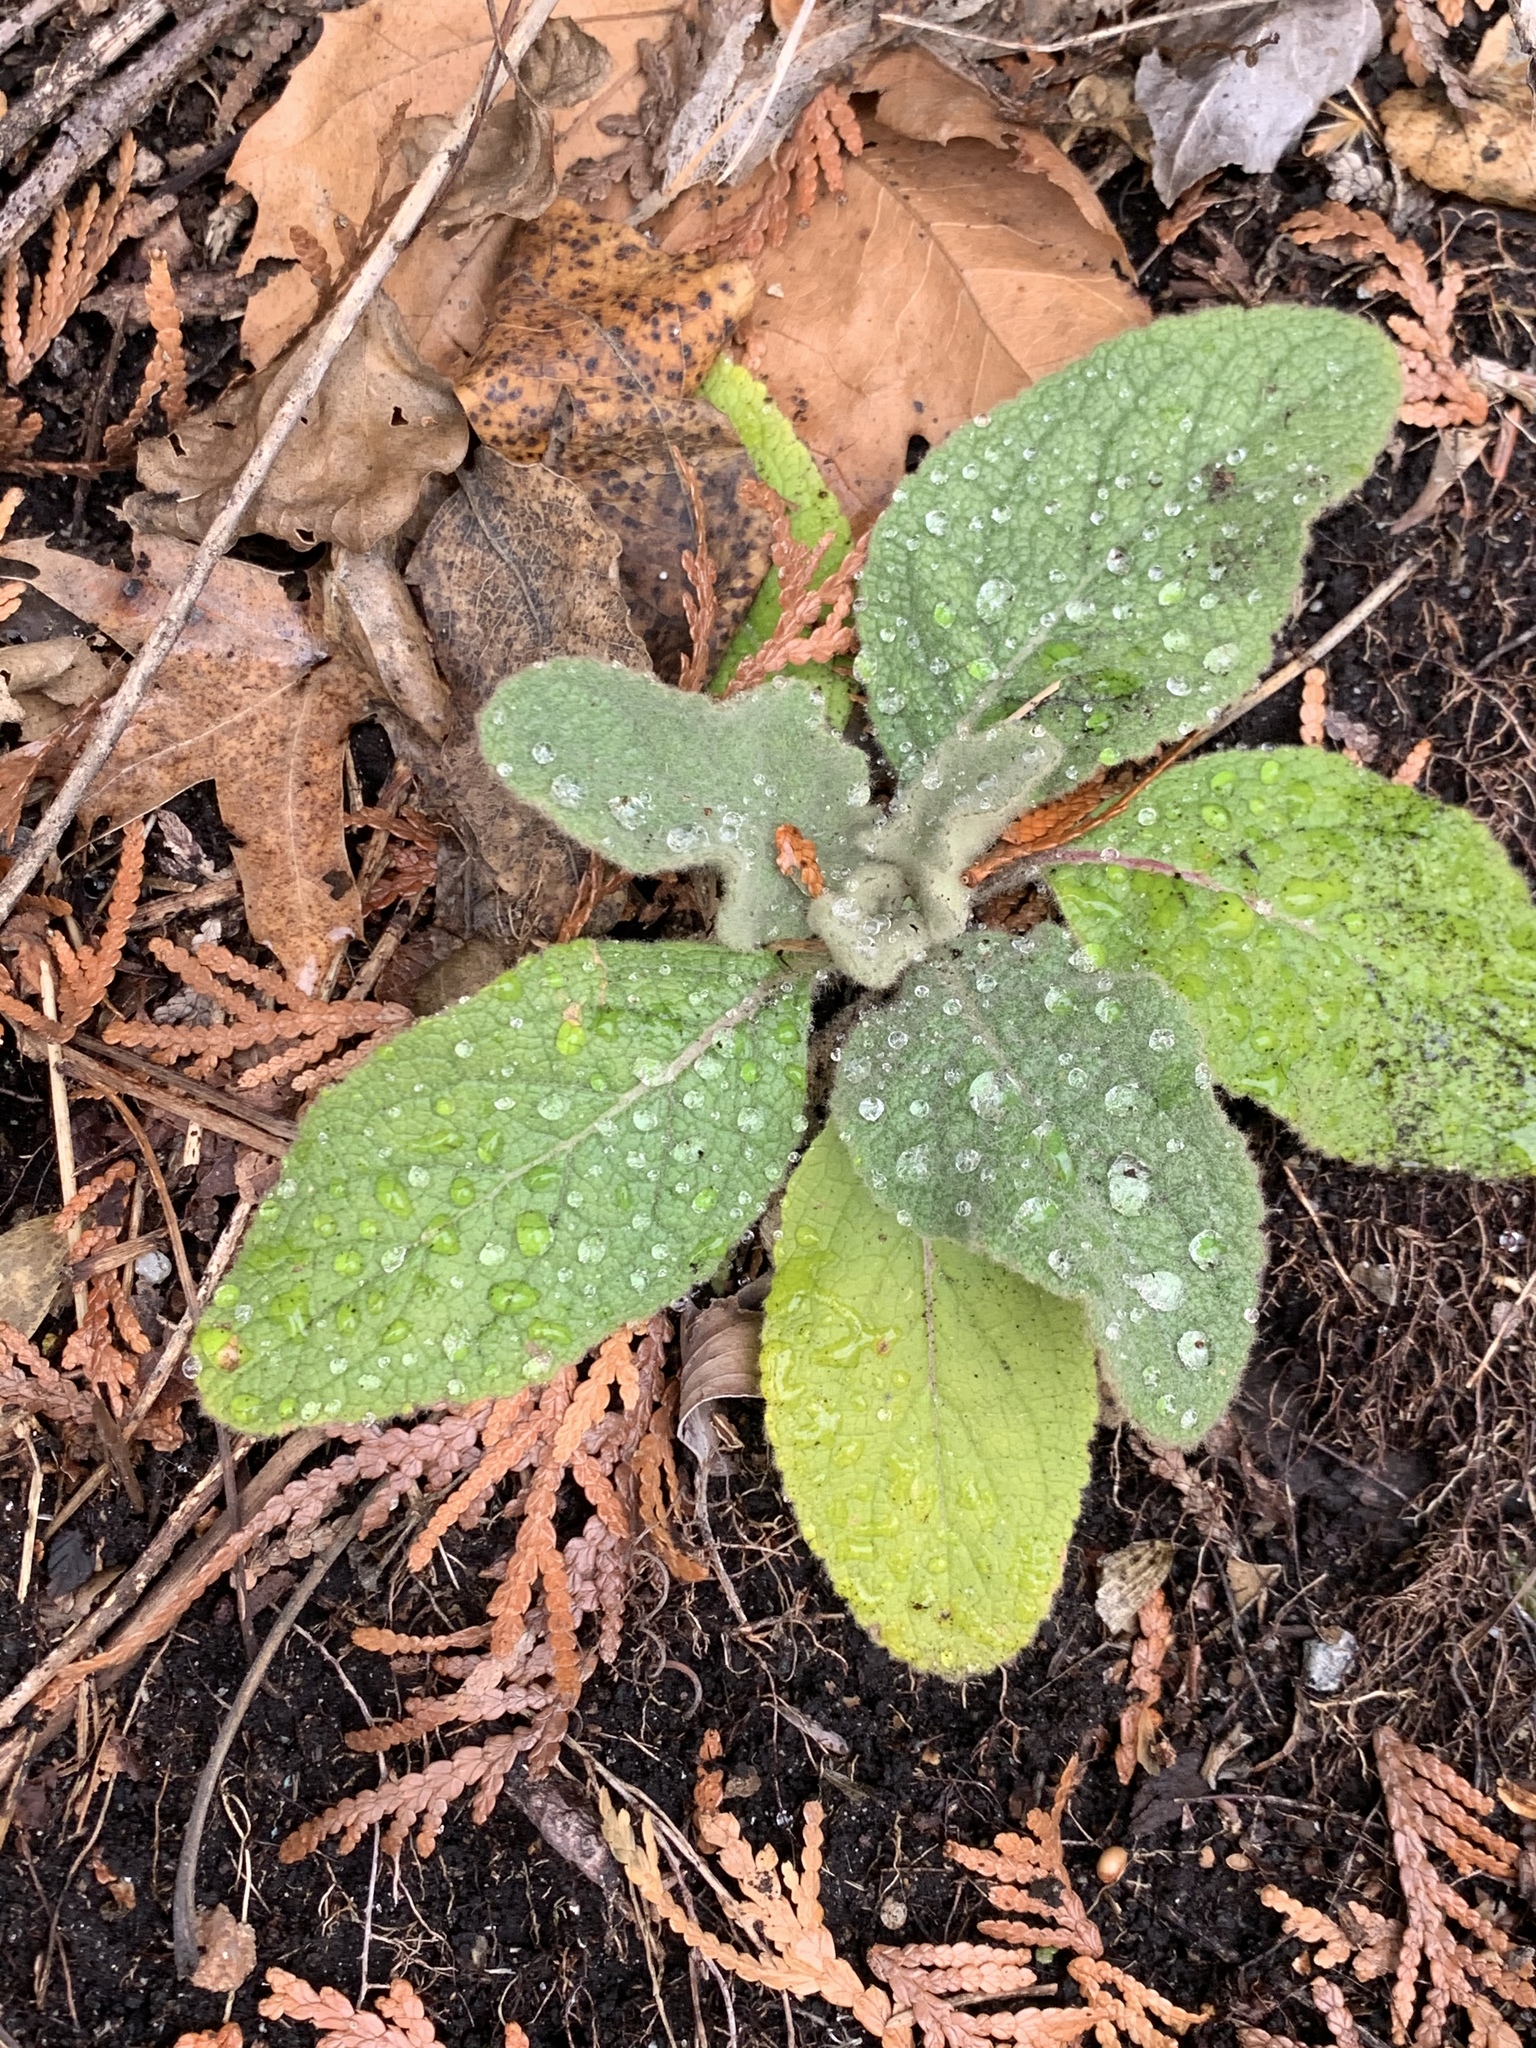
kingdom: Plantae
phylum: Tracheophyta
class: Magnoliopsida
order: Lamiales
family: Scrophulariaceae
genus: Verbascum
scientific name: Verbascum thapsus
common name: Common mullein
